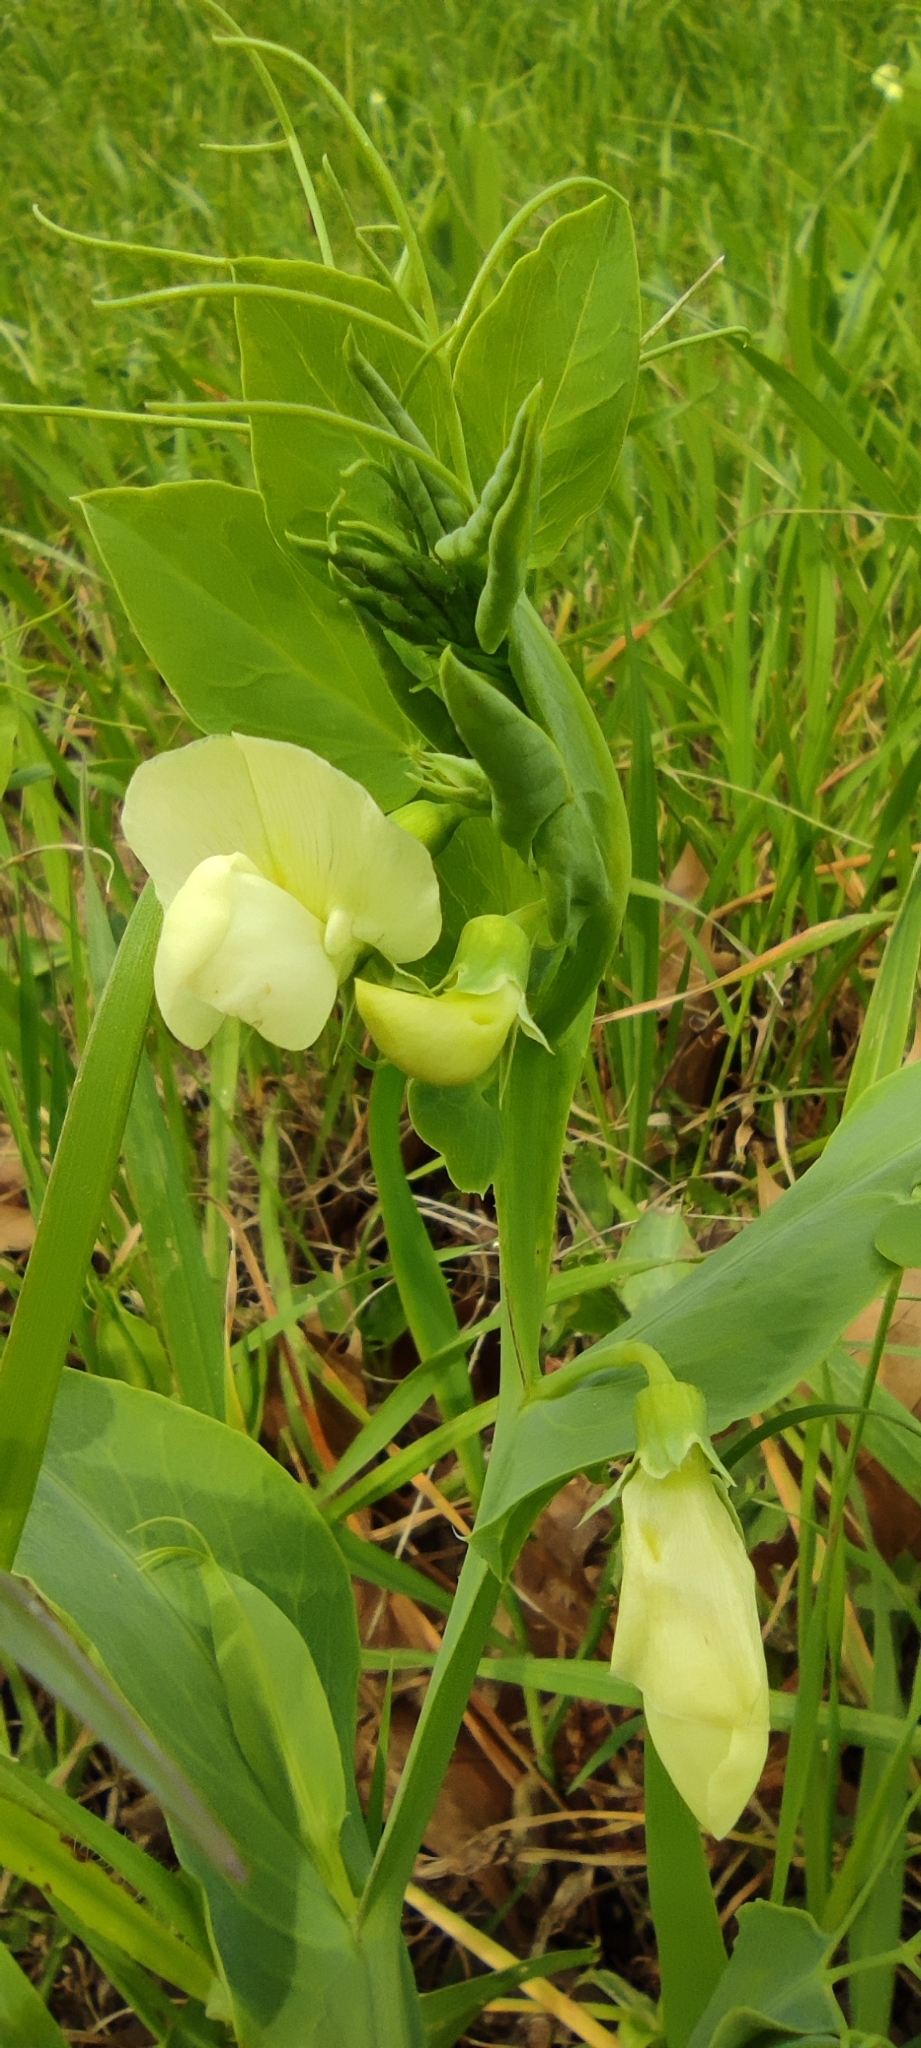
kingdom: Plantae
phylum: Tracheophyta
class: Magnoliopsida
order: Fabales
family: Fabaceae
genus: Lathyrus
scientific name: Lathyrus ochrus
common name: Winged vetchling
